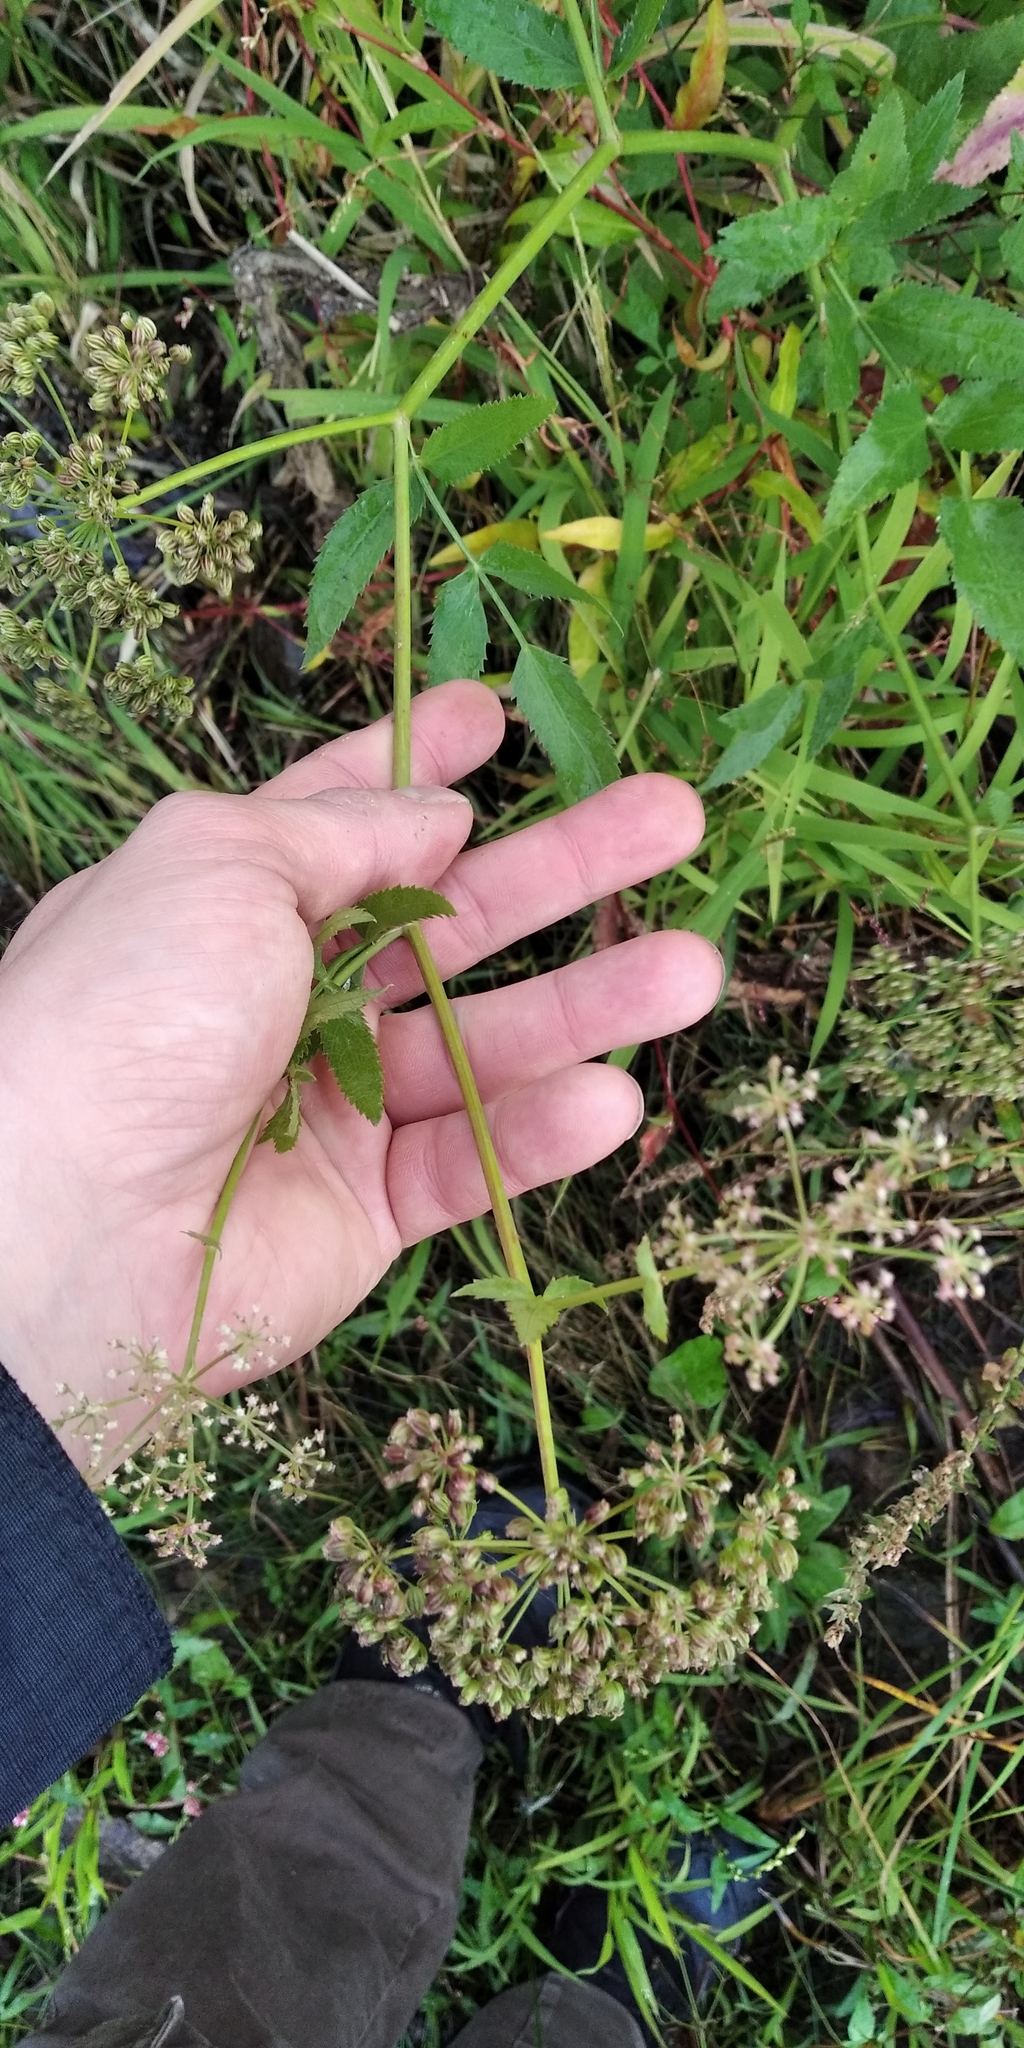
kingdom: Plantae
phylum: Tracheophyta
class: Magnoliopsida
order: Apiales
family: Apiaceae
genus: Sium
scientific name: Sium latifolium
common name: Greater water-parsnip
